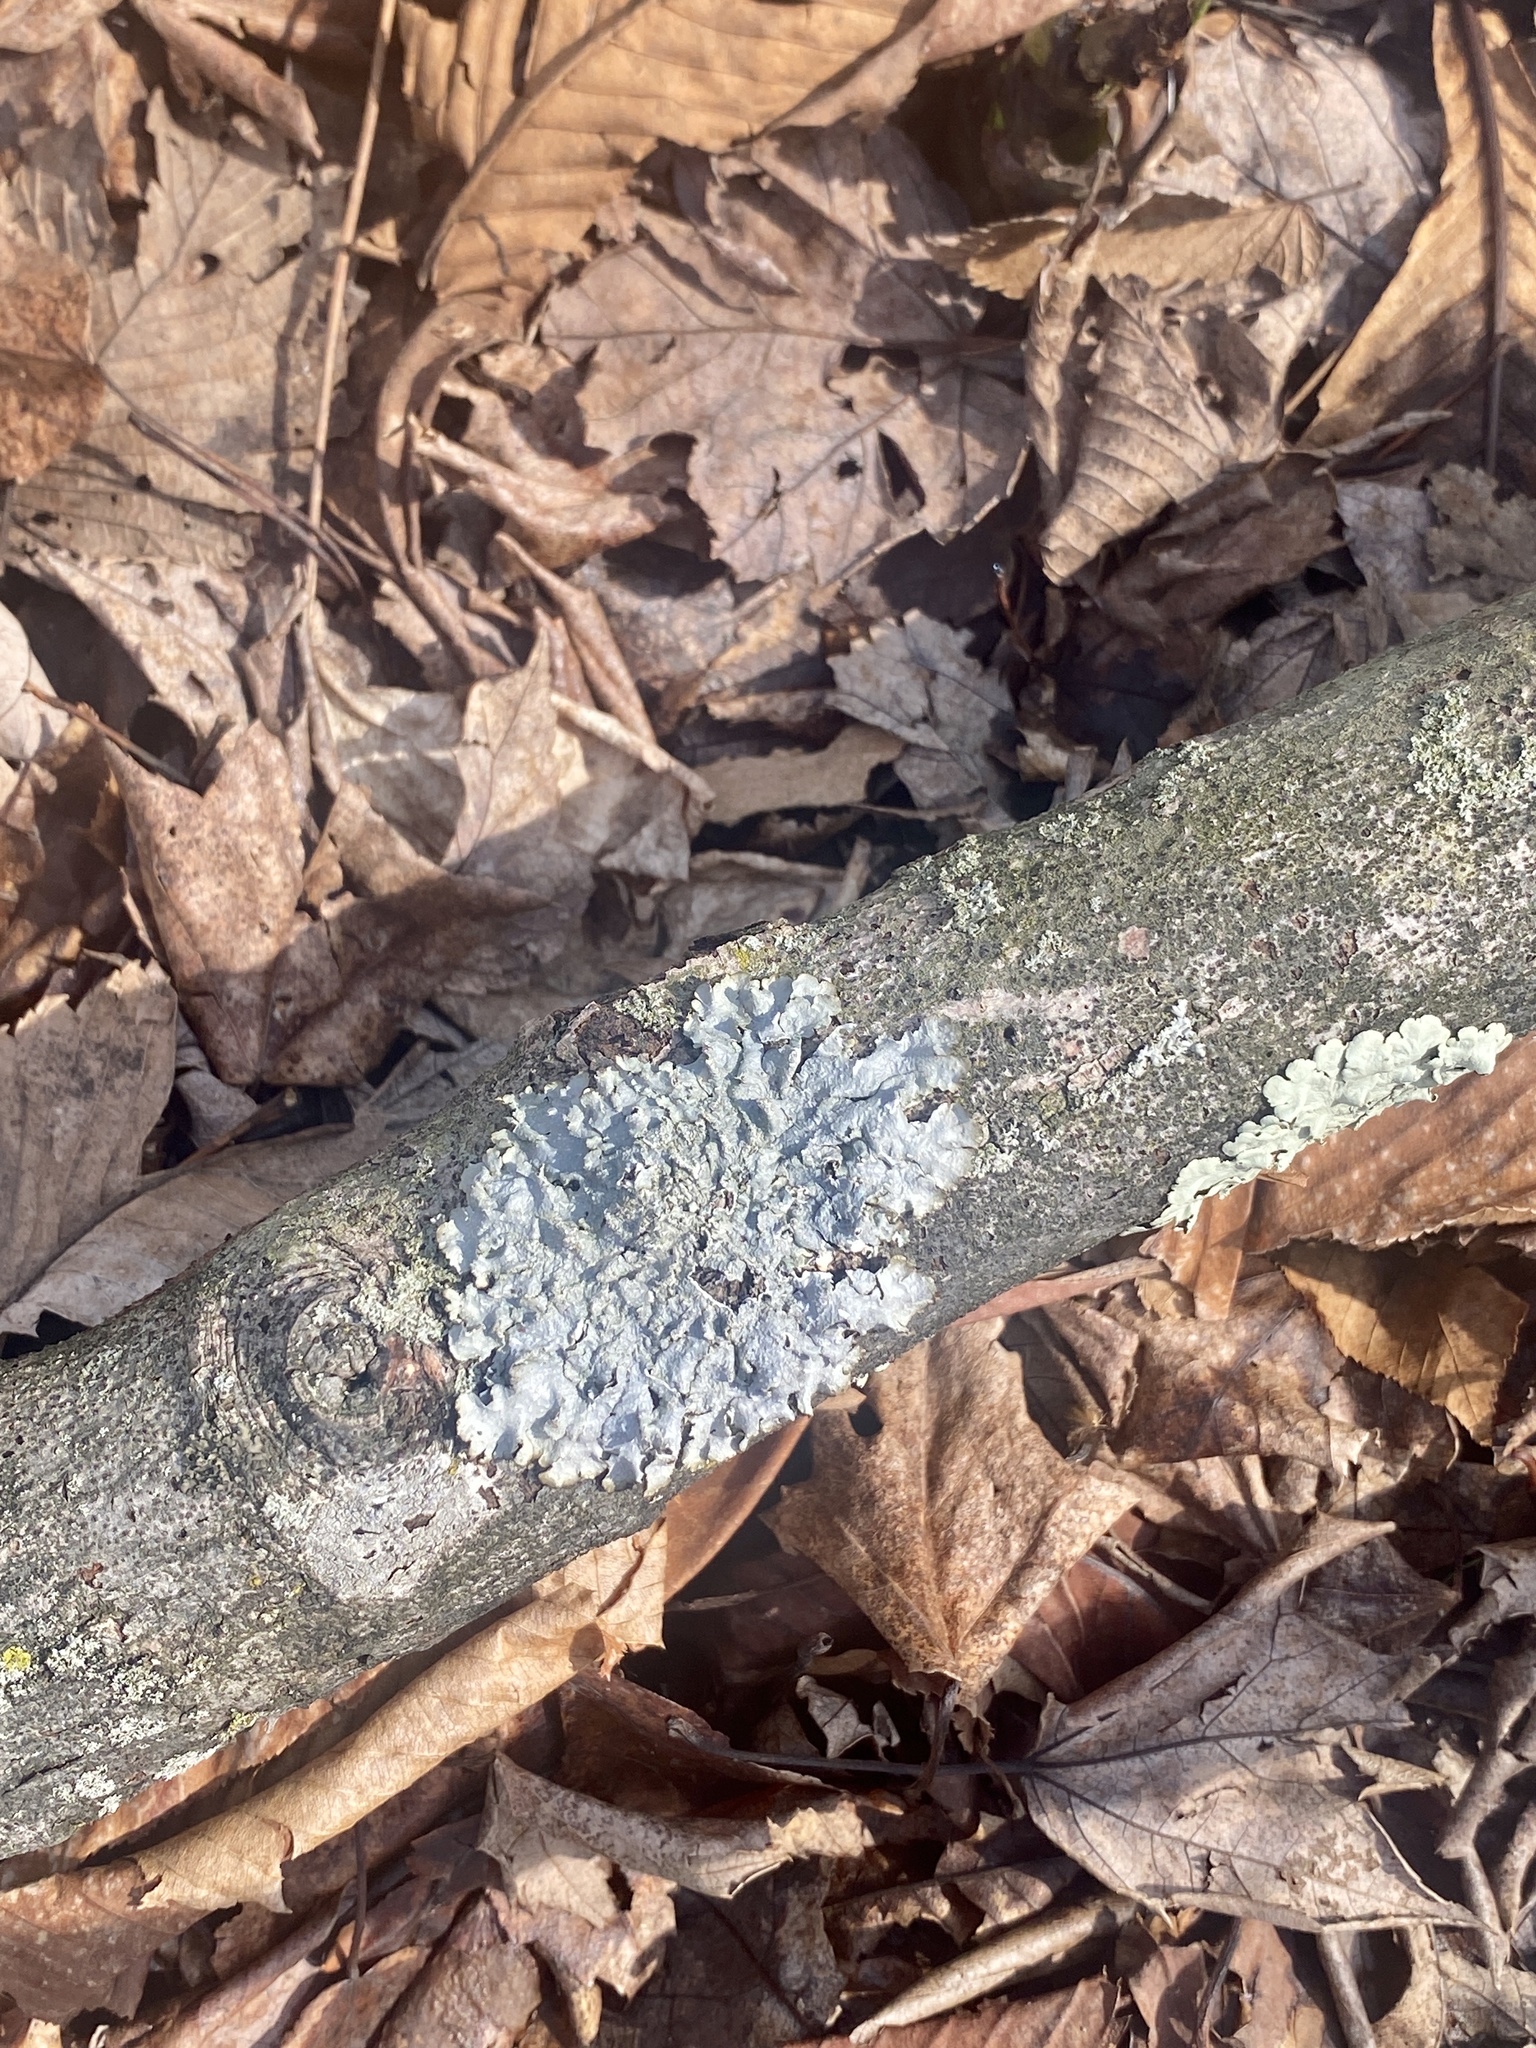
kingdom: Fungi
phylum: Ascomycota
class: Lecanoromycetes
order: Lecanorales
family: Parmeliaceae
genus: Punctelia
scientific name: Punctelia rudecta
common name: Rough speckled shield lichen
